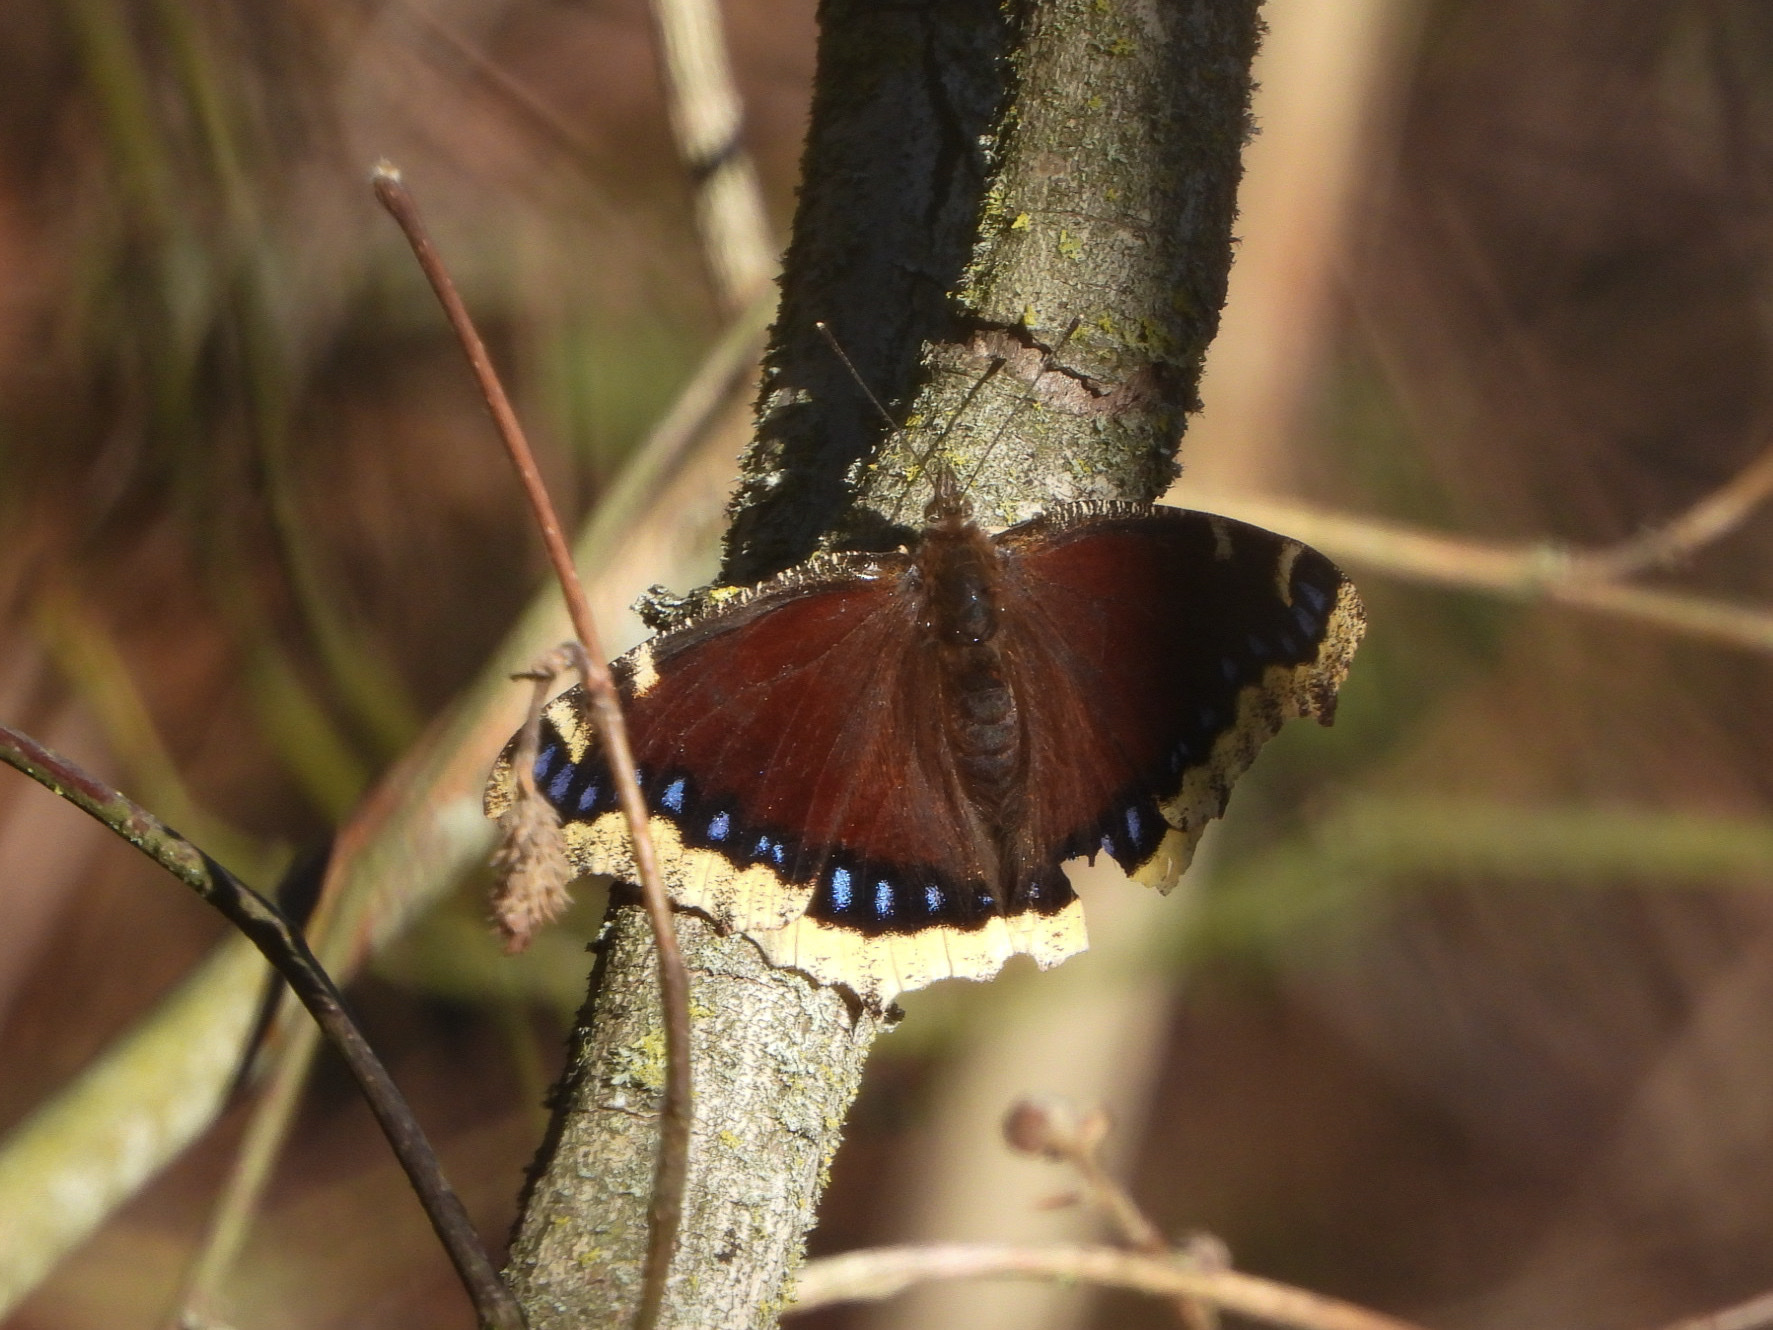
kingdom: Animalia
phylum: Arthropoda
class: Insecta
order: Lepidoptera
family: Nymphalidae
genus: Nymphalis
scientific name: Nymphalis antiopa
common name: Camberwell beauty
